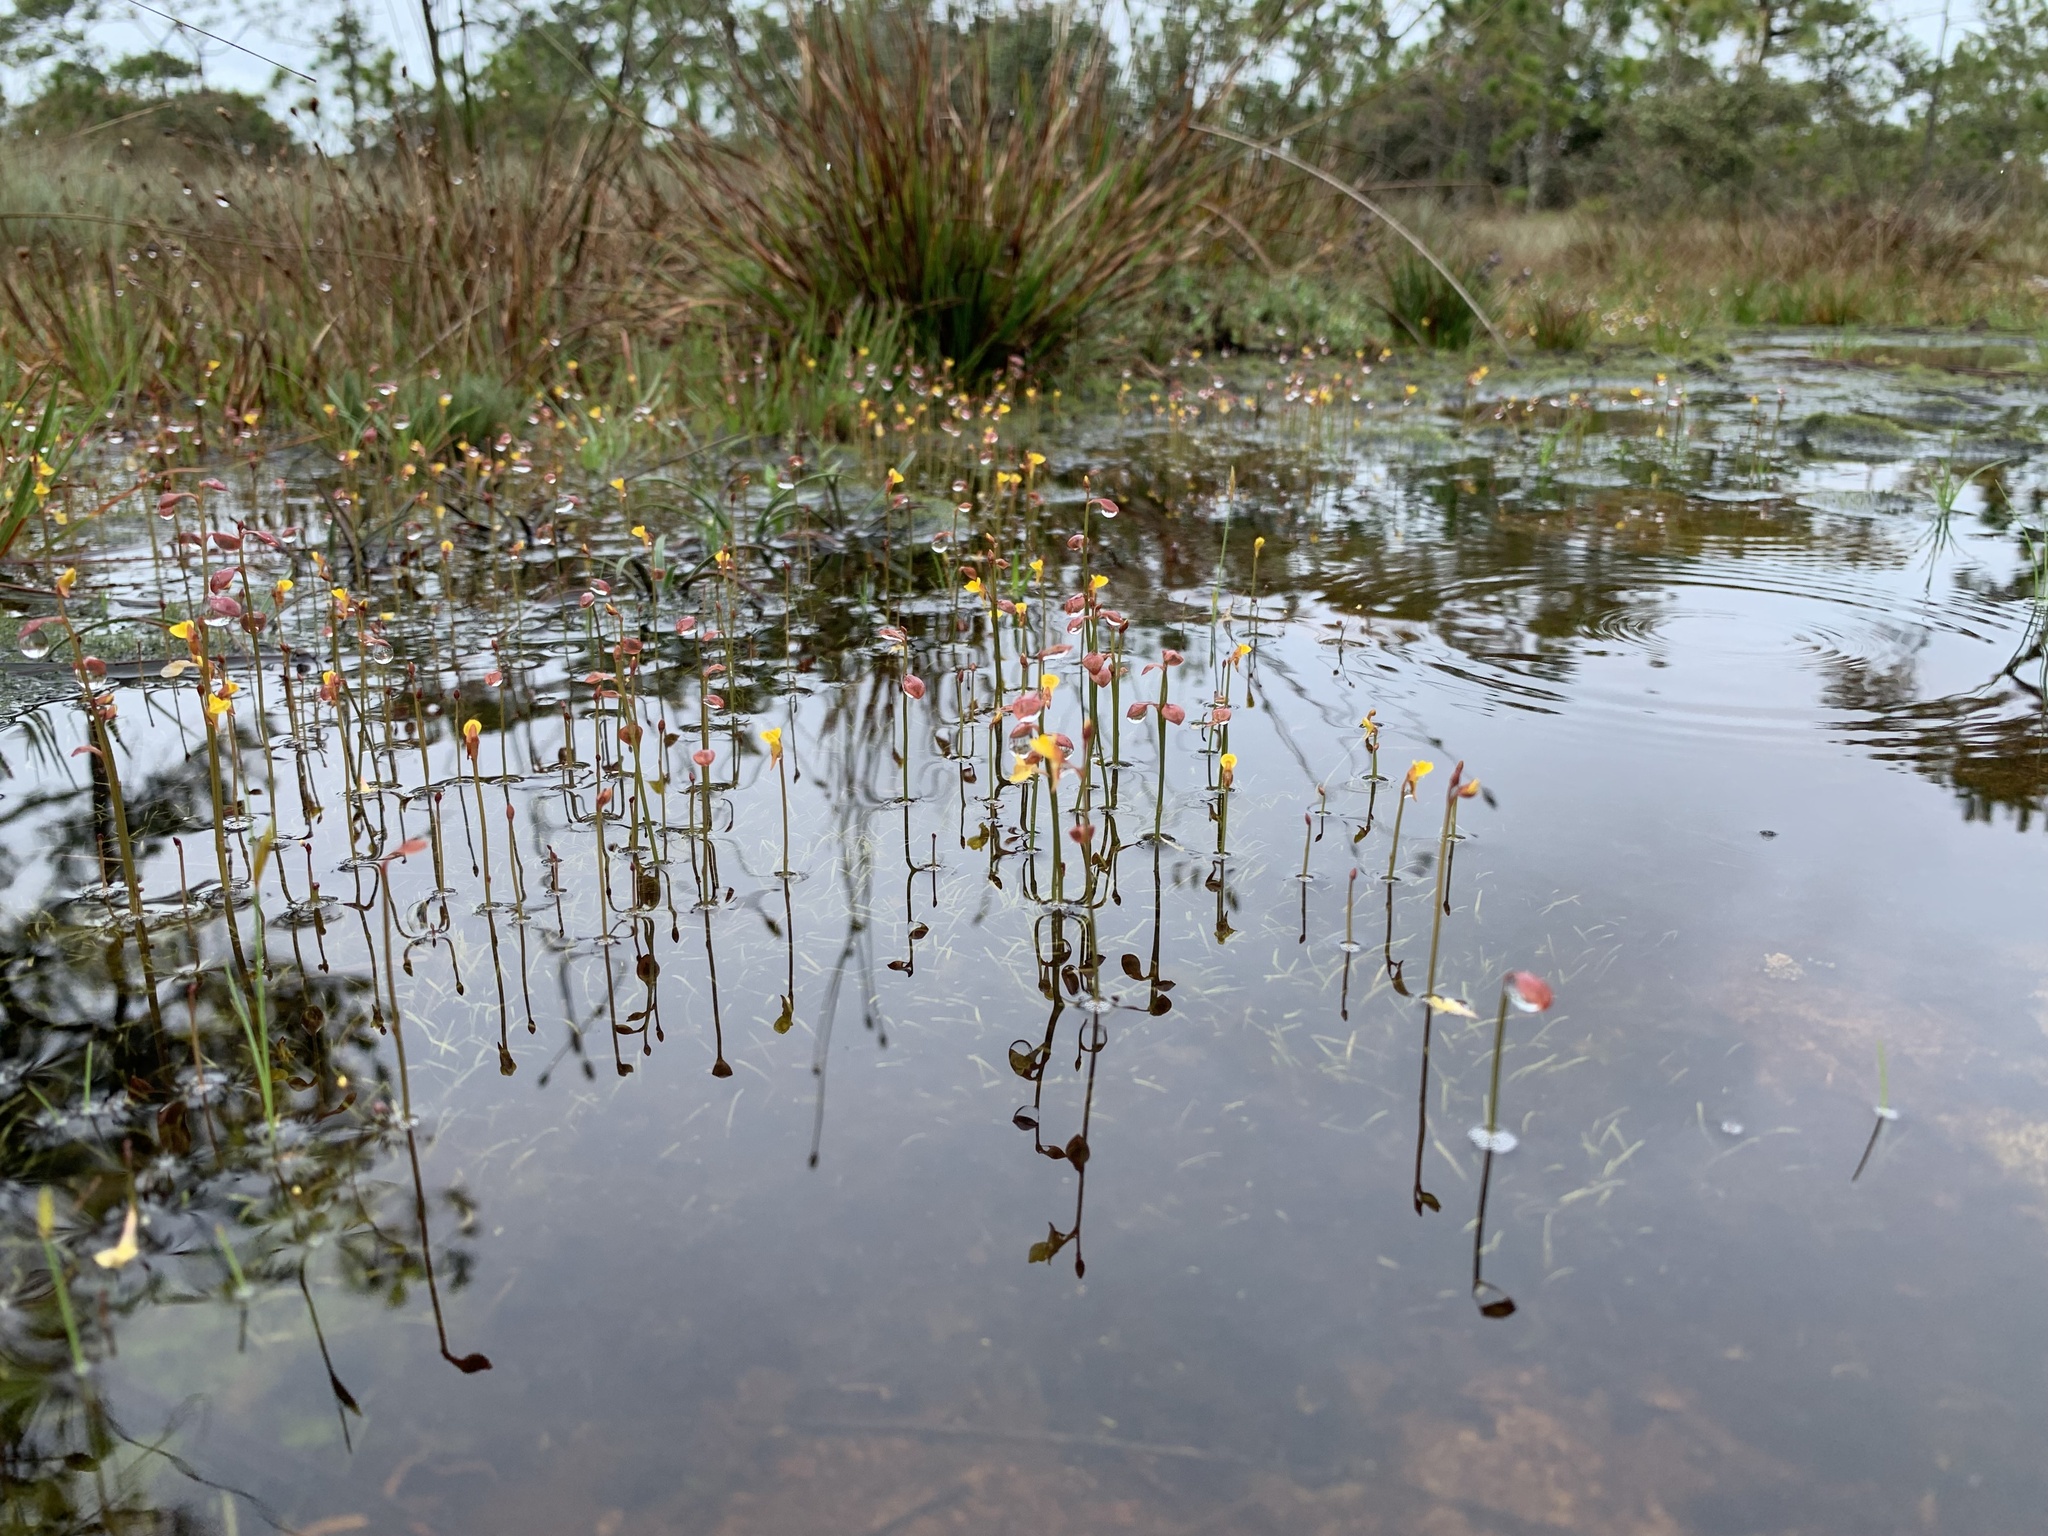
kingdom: Plantae
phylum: Tracheophyta
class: Magnoliopsida
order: Lamiales
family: Lentibulariaceae
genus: Utricularia
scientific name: Utricularia bifida
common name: Bifid bladderwort
